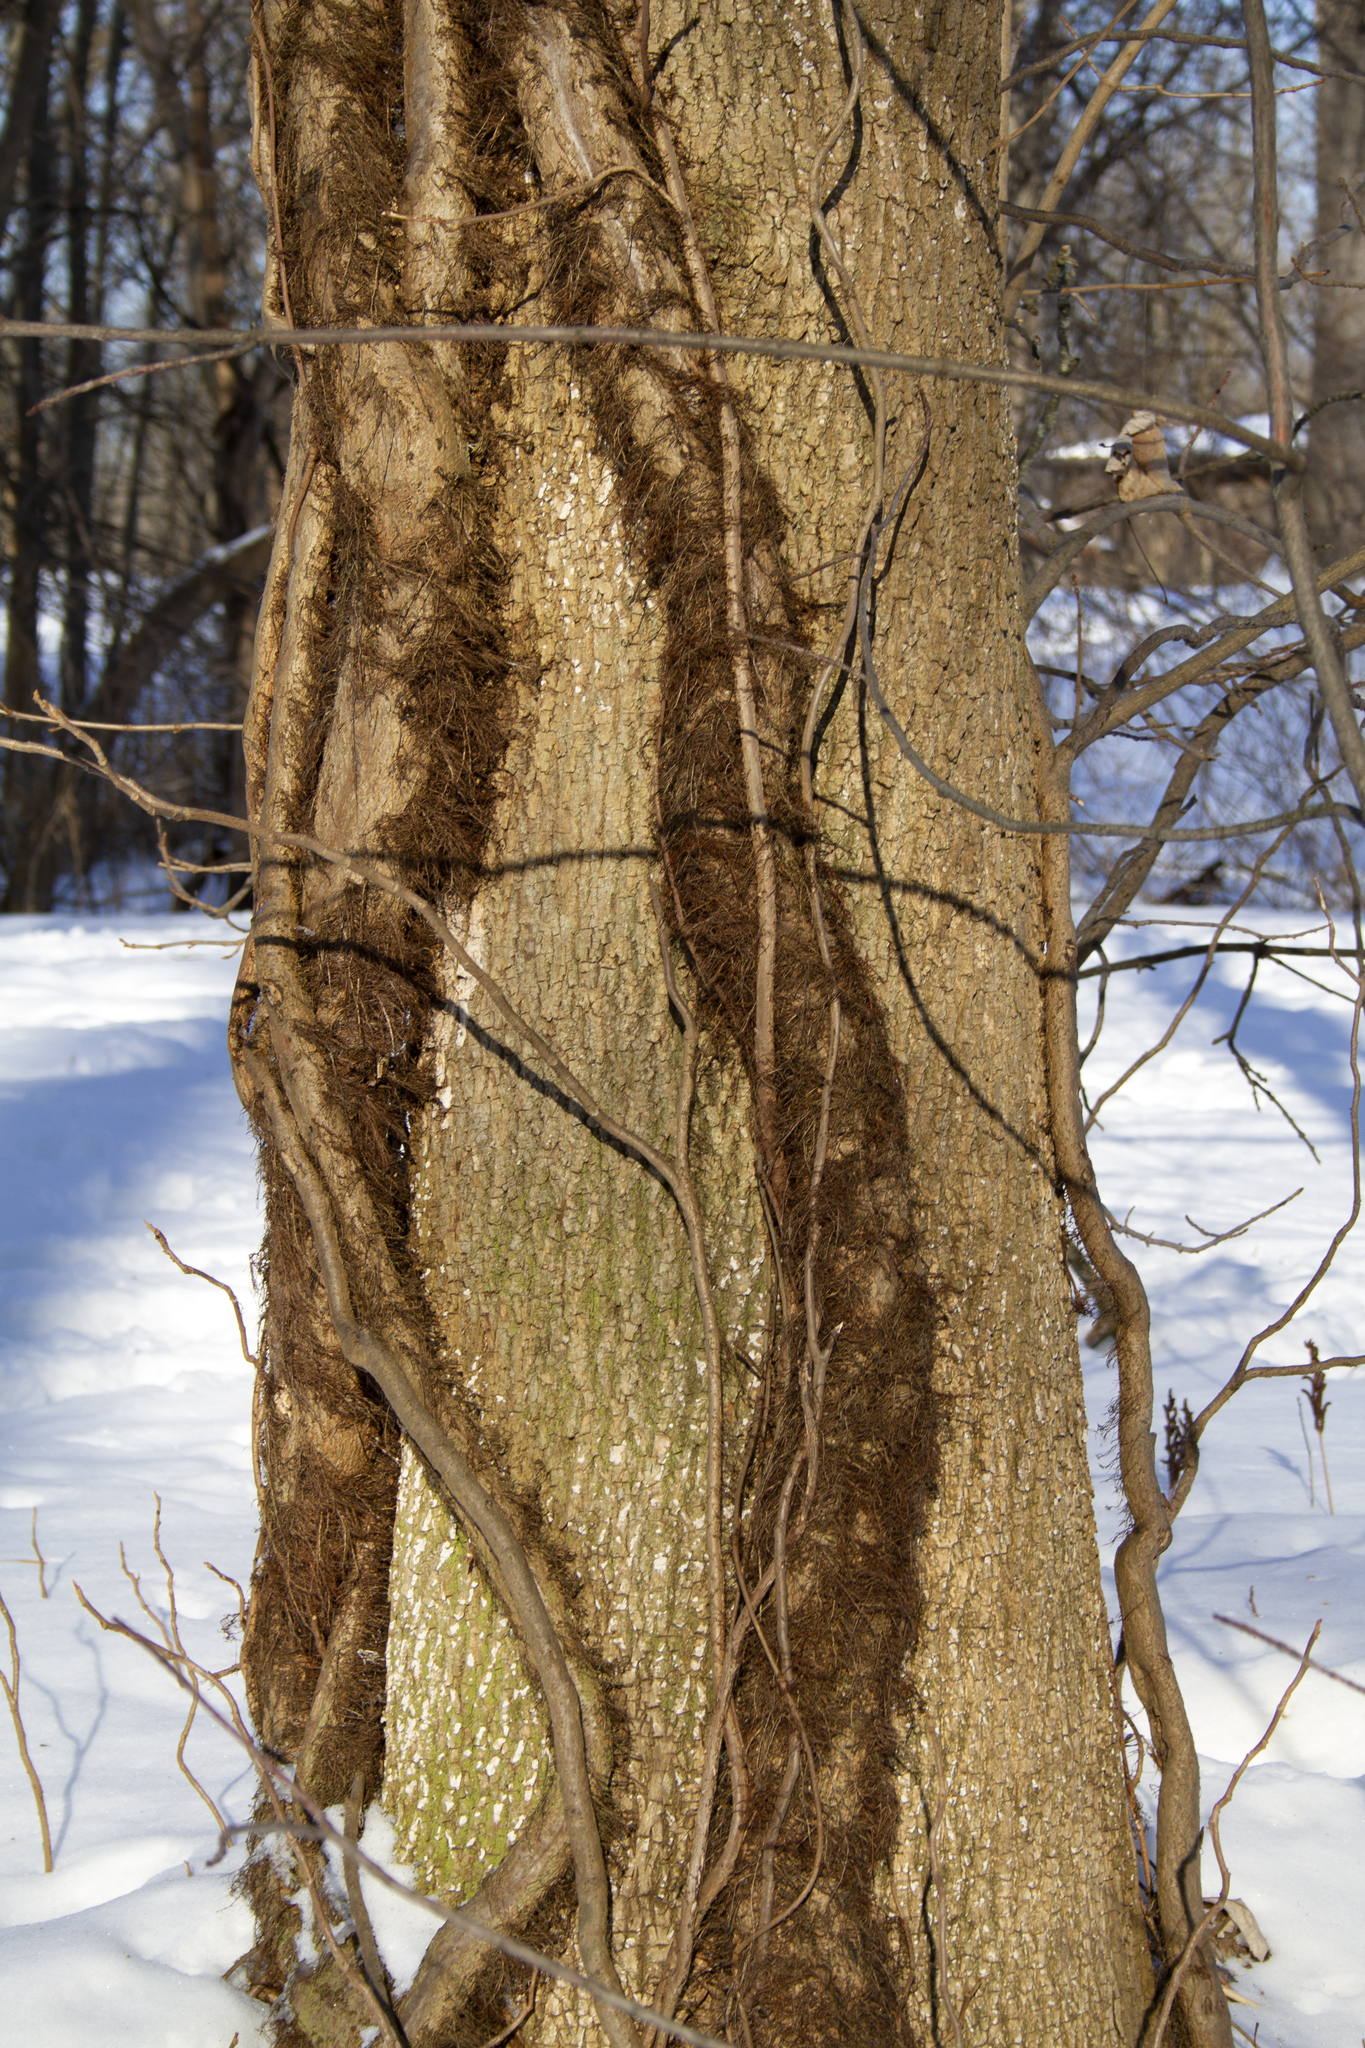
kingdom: Plantae
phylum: Tracheophyta
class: Magnoliopsida
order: Sapindales
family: Anacardiaceae
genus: Toxicodendron
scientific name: Toxicodendron radicans
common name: Poison ivy
